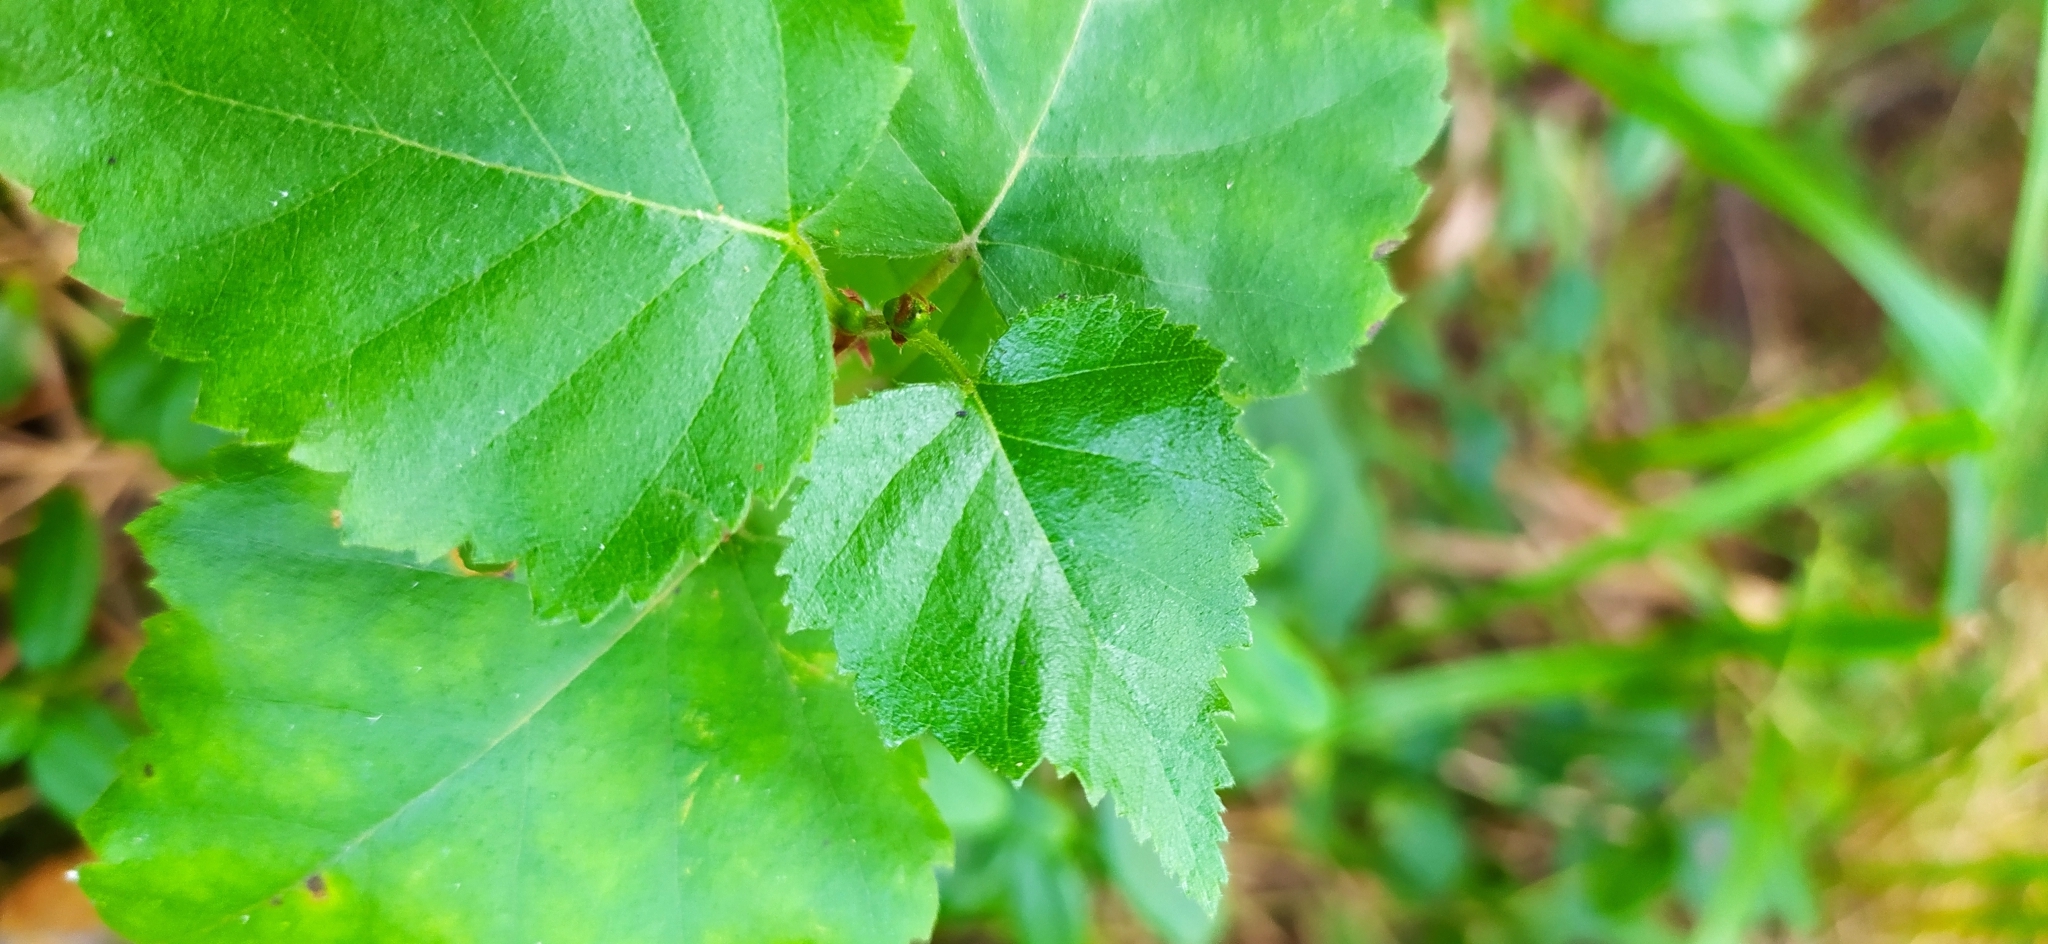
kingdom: Plantae
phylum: Tracheophyta
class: Magnoliopsida
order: Fagales
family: Betulaceae
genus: Betula
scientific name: Betula pubescens
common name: Downy birch
